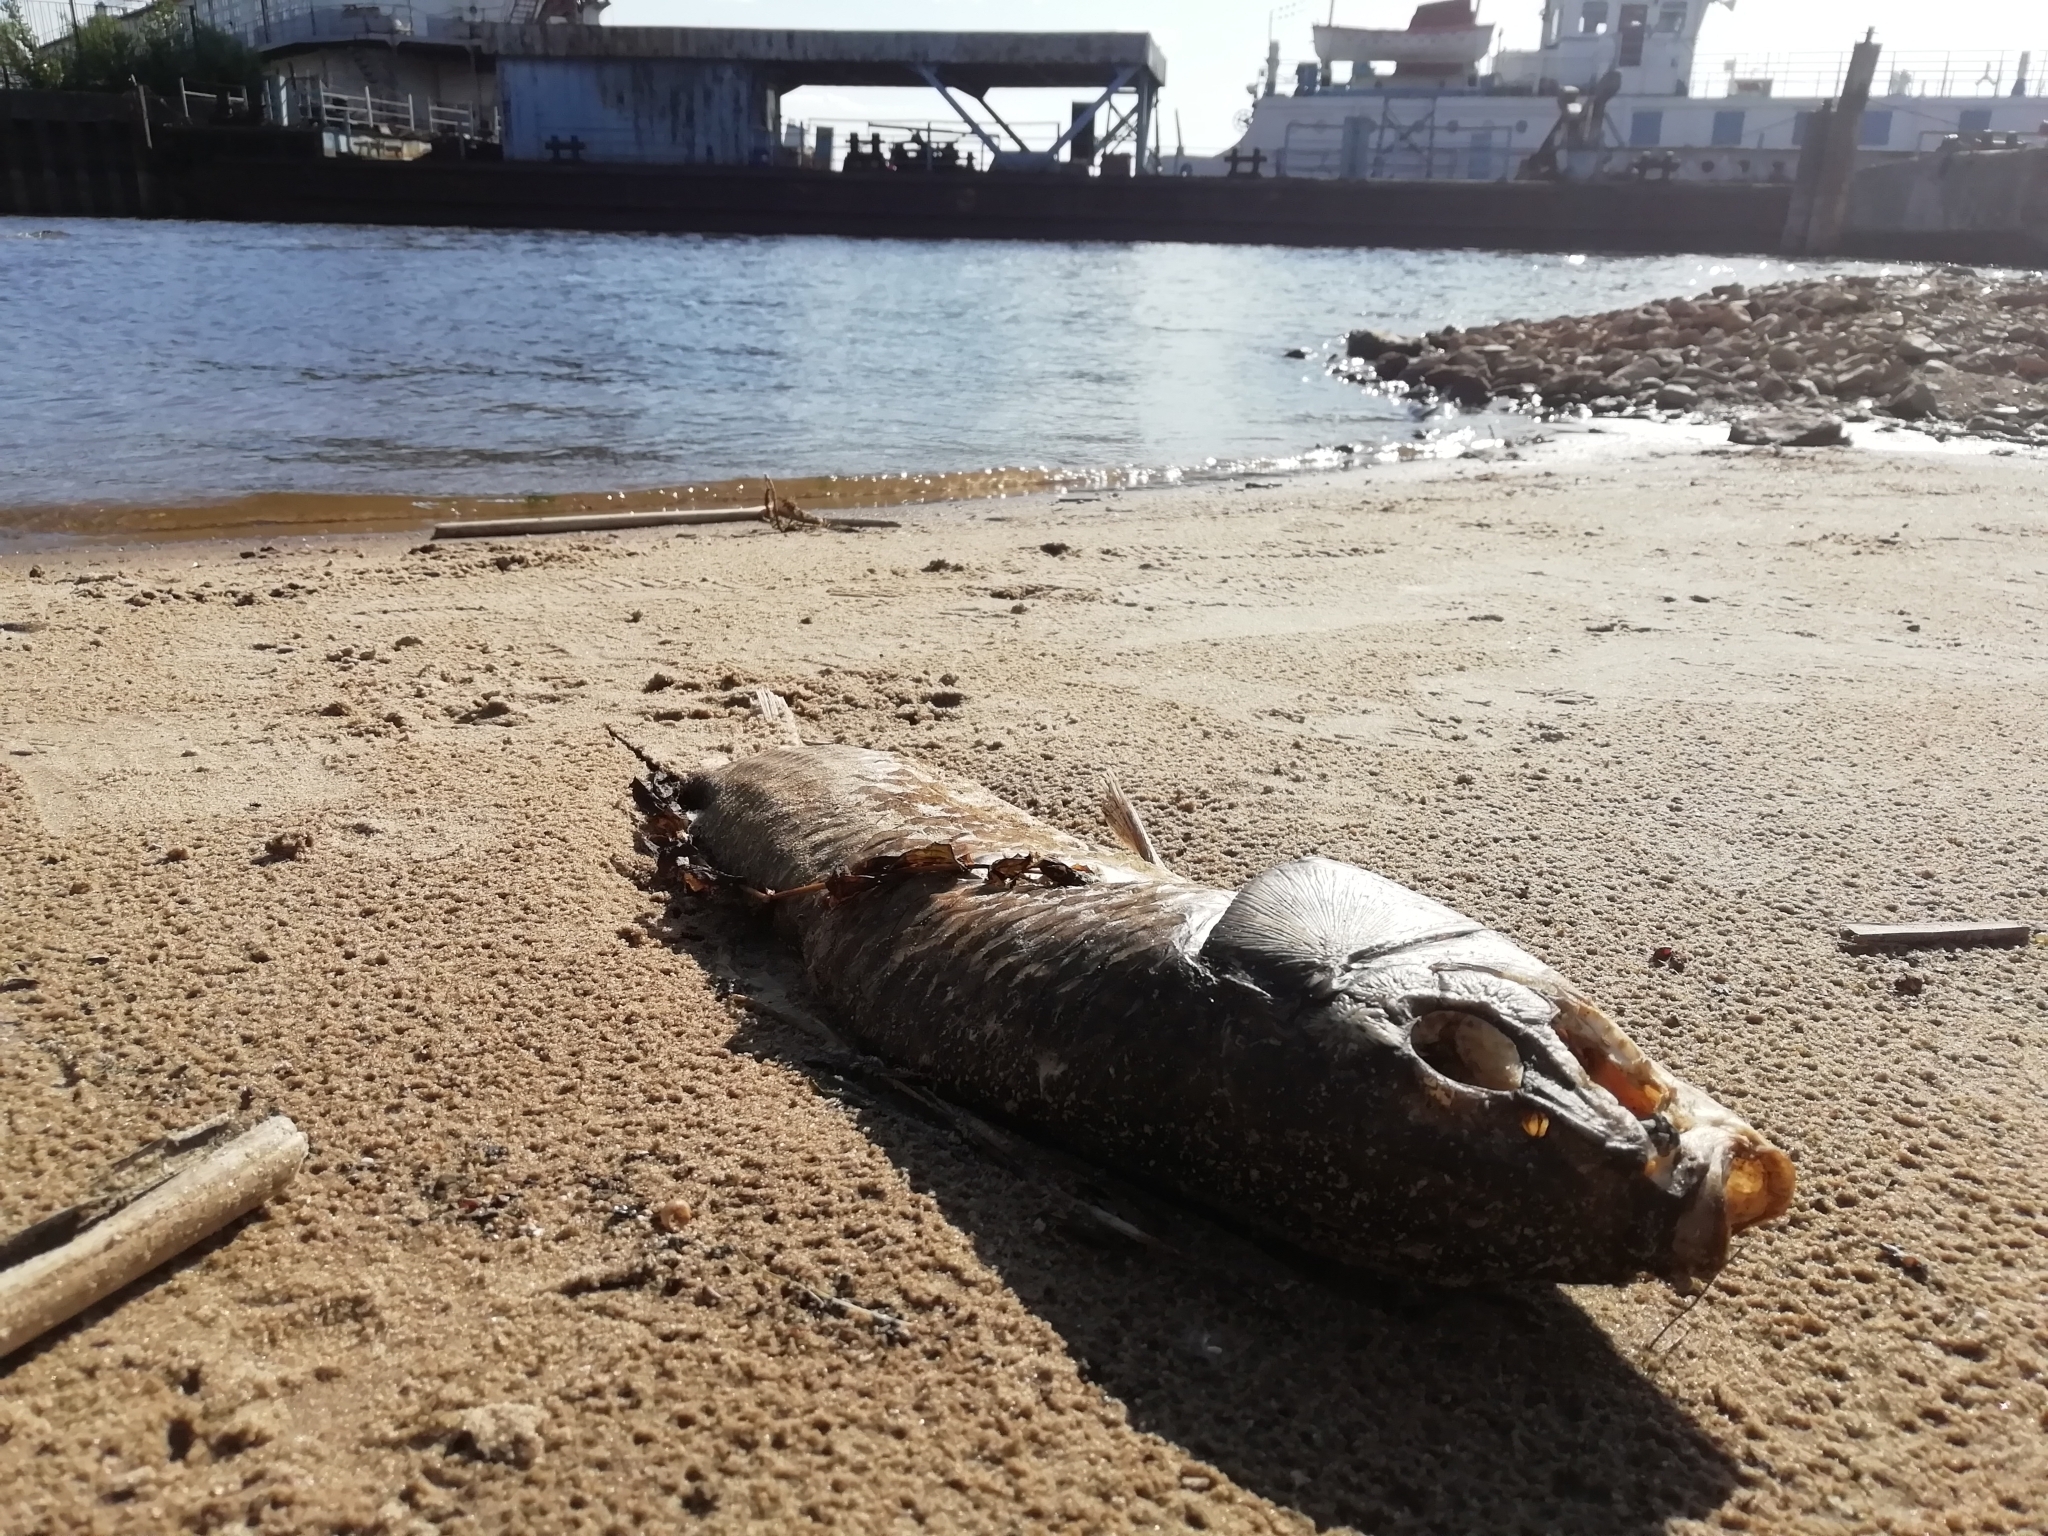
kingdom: Animalia
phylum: Chordata
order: Cypriniformes
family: Cyprinidae
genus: Cyprinus
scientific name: Cyprinus carpio
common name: Common carp
